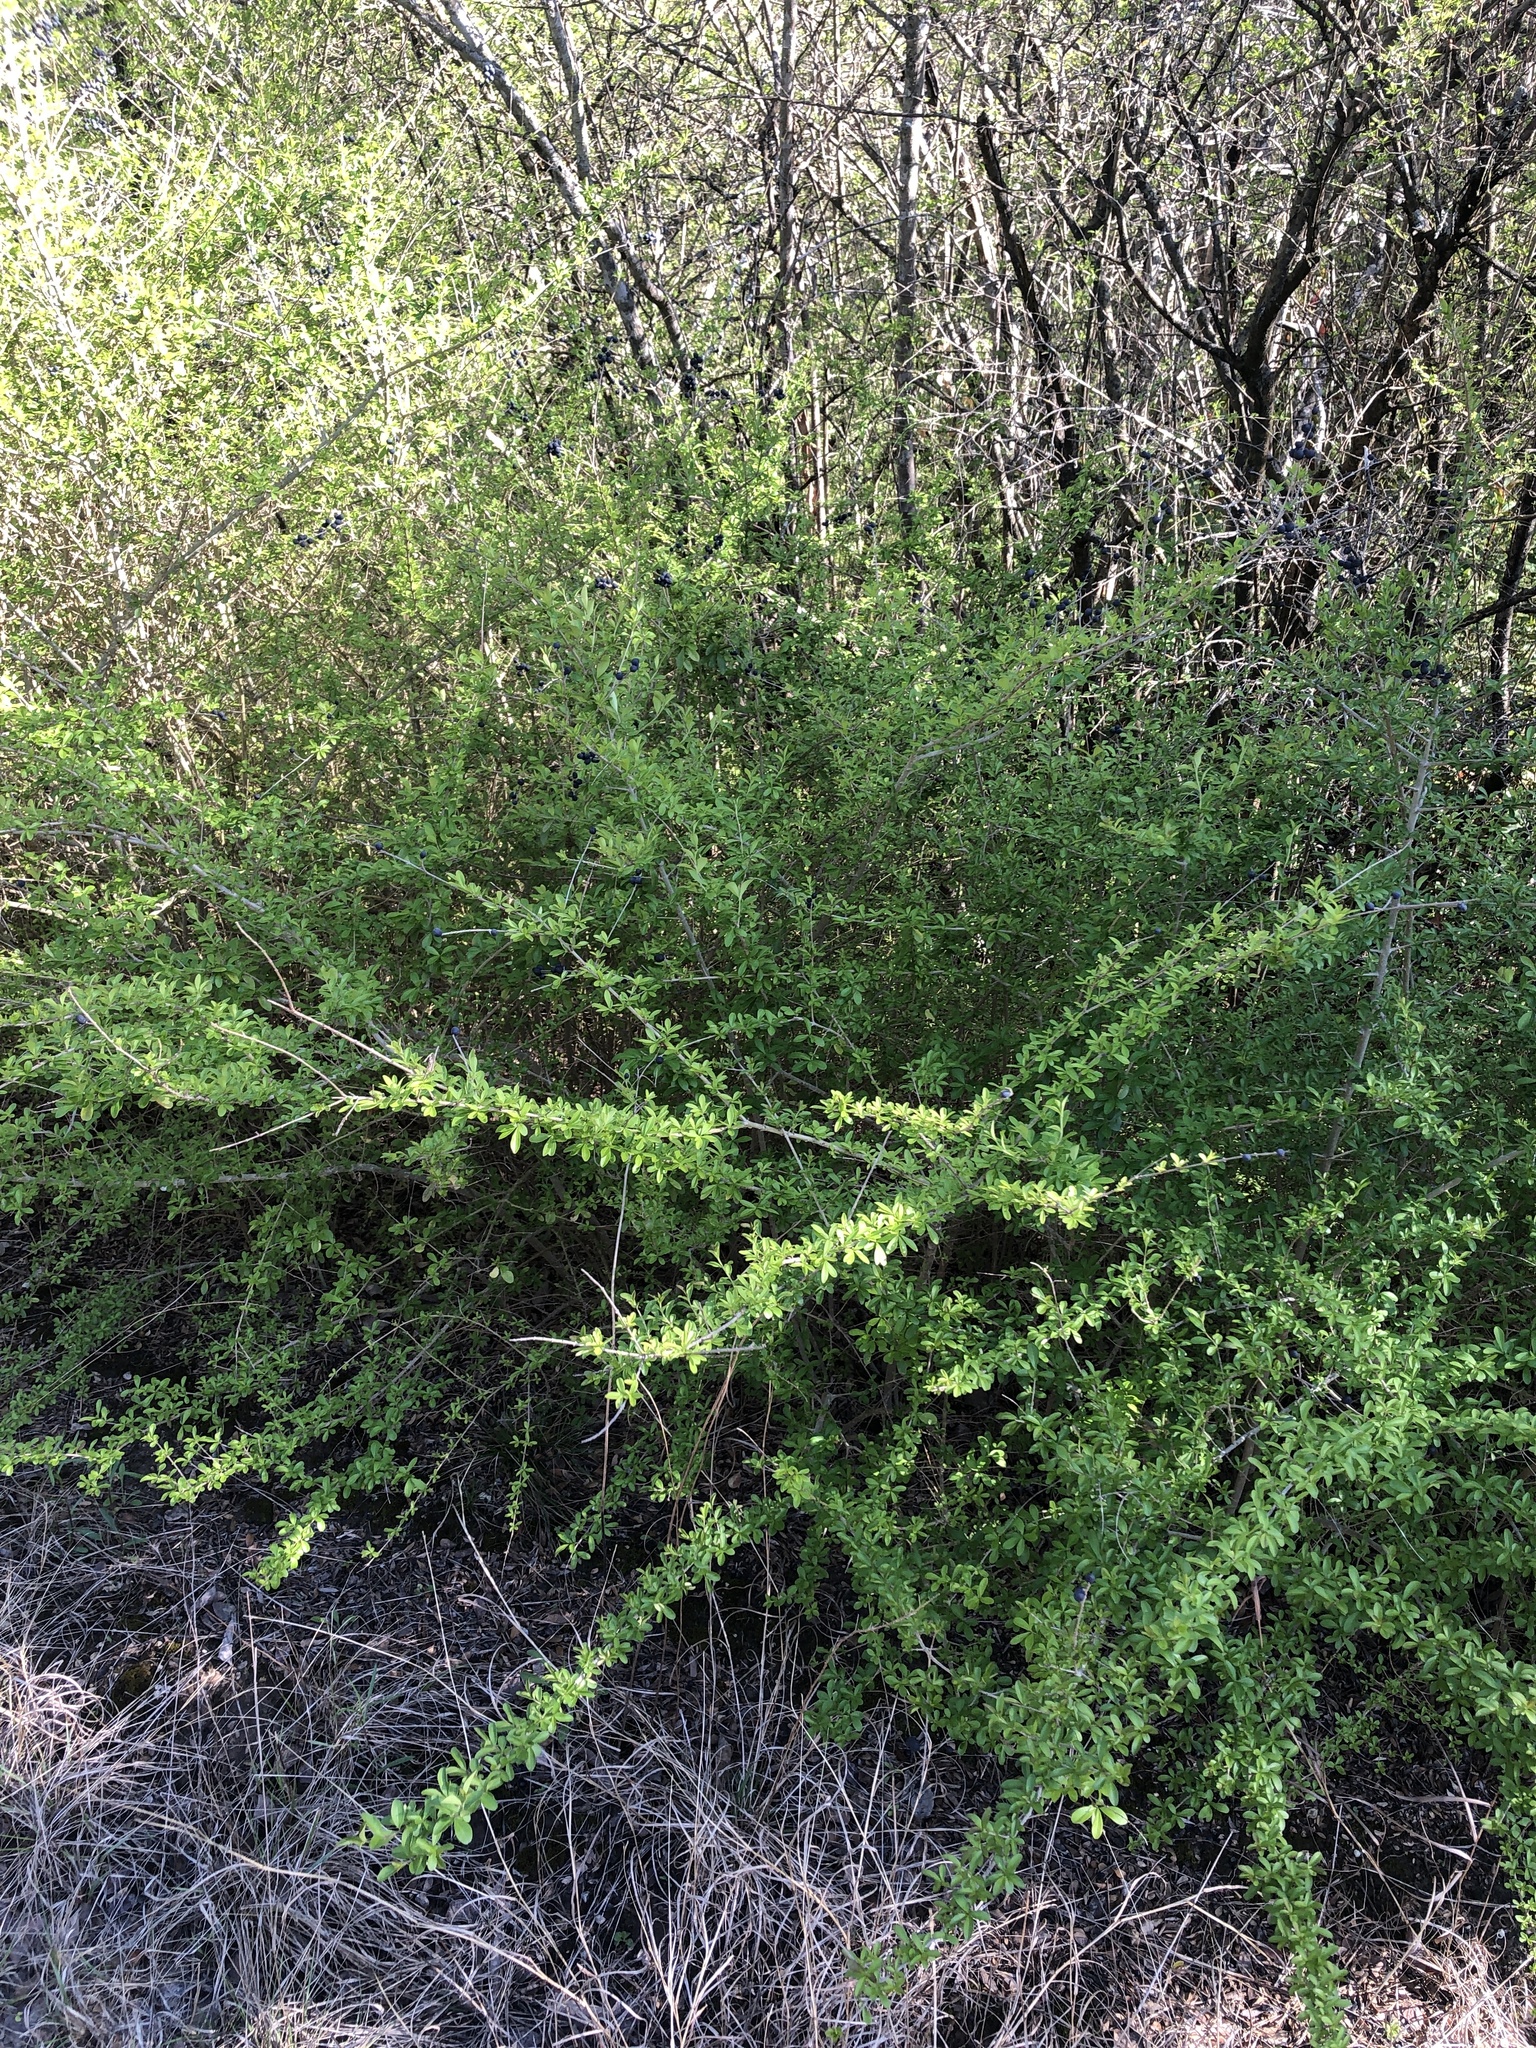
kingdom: Plantae
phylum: Tracheophyta
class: Magnoliopsida
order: Lamiales
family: Oleaceae
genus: Ligustrum
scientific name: Ligustrum quihoui
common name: Waxyleaf privet
